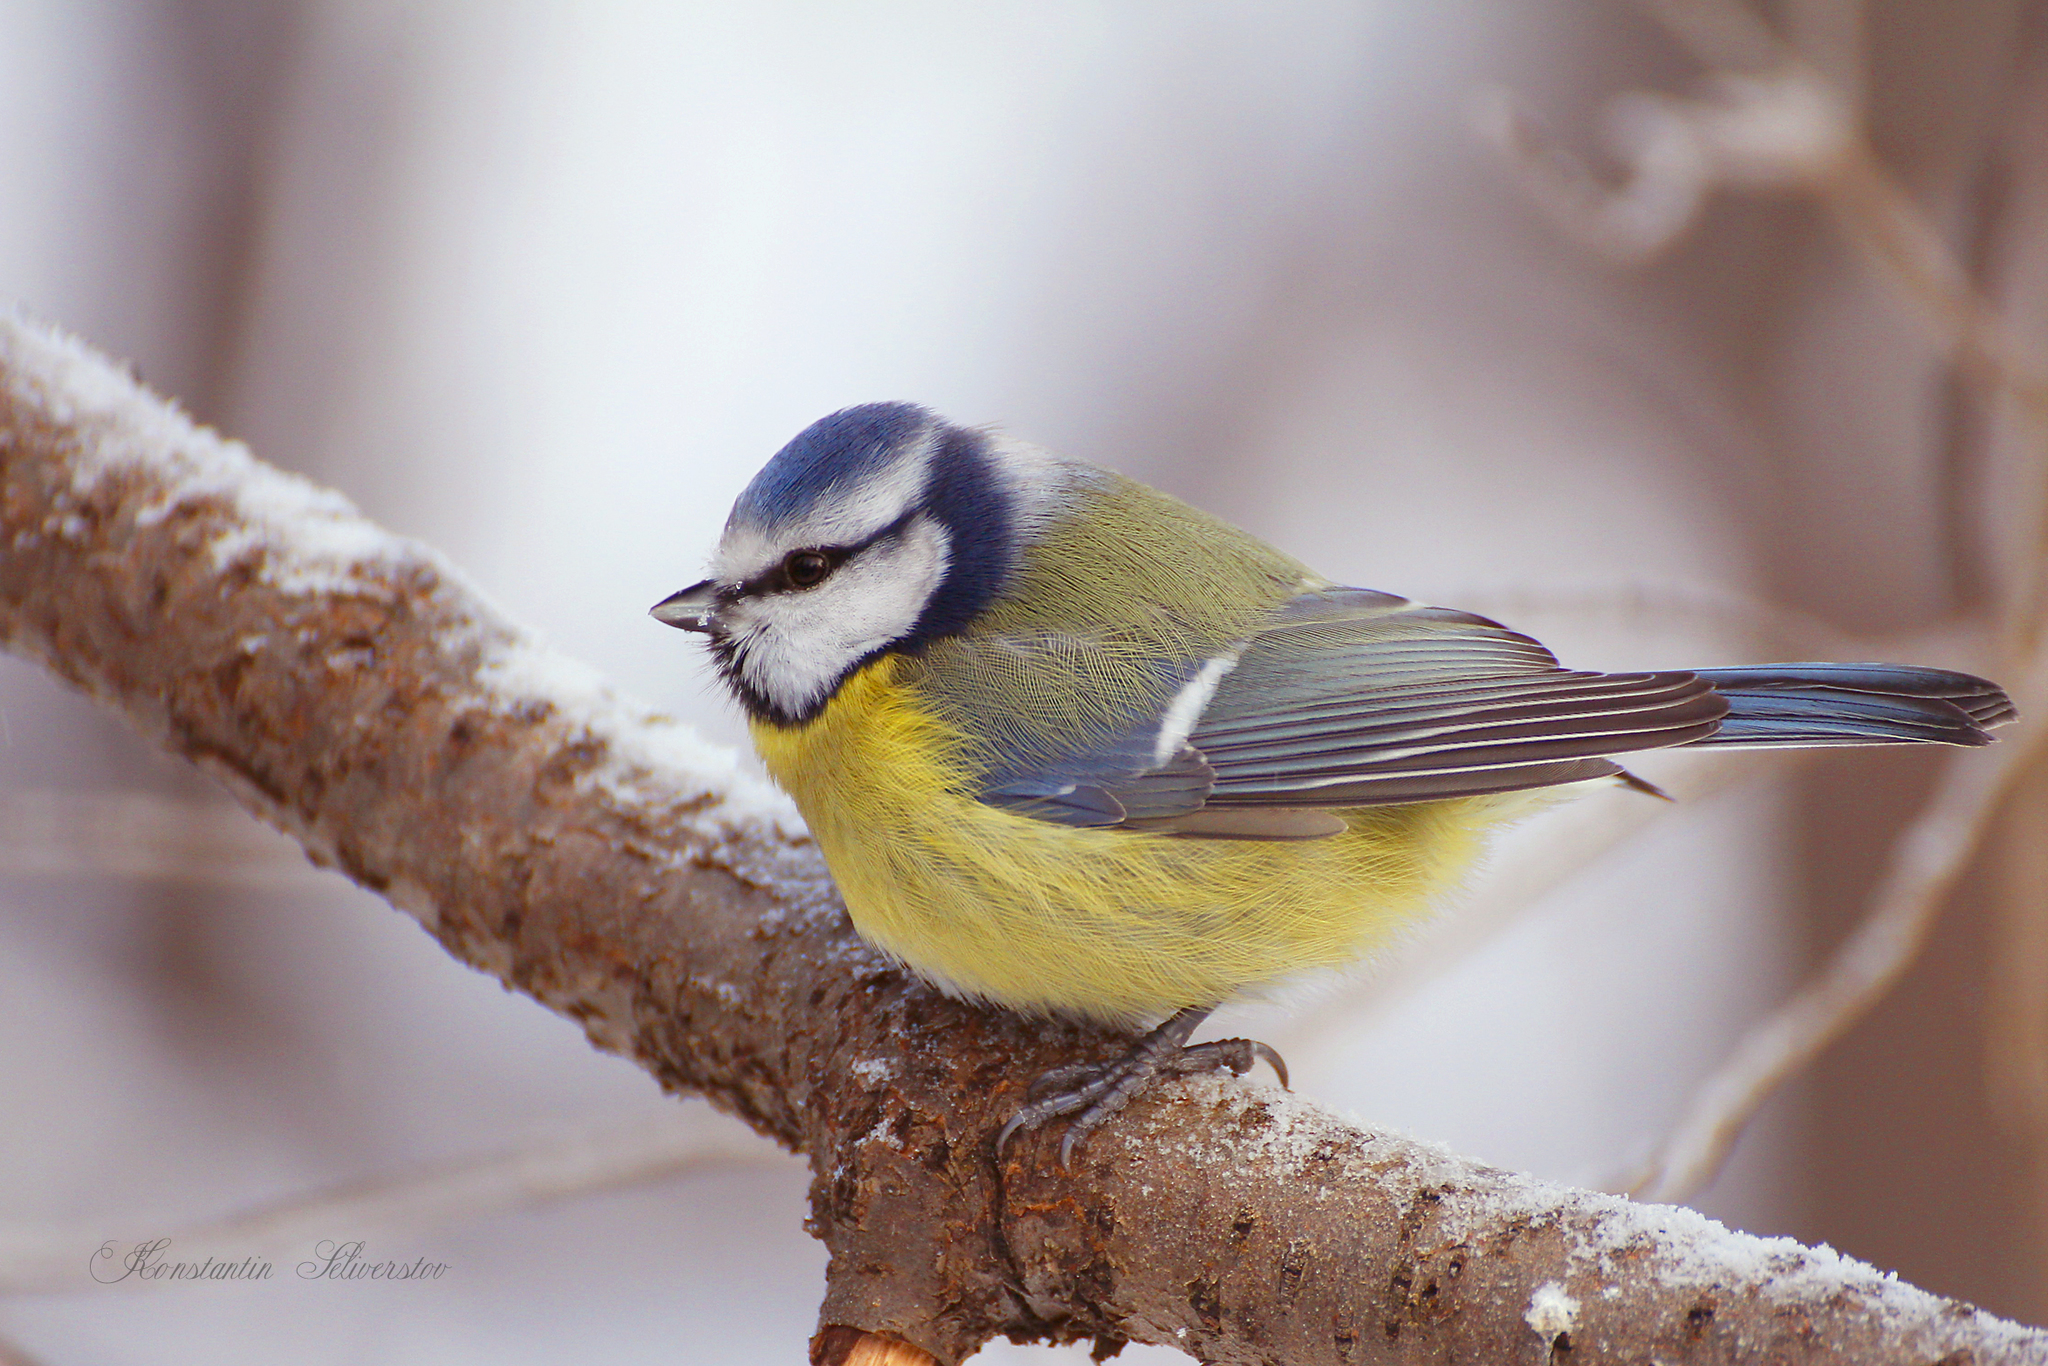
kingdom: Animalia
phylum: Chordata
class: Aves
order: Passeriformes
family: Paridae
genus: Cyanistes
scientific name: Cyanistes caeruleus
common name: Eurasian blue tit
